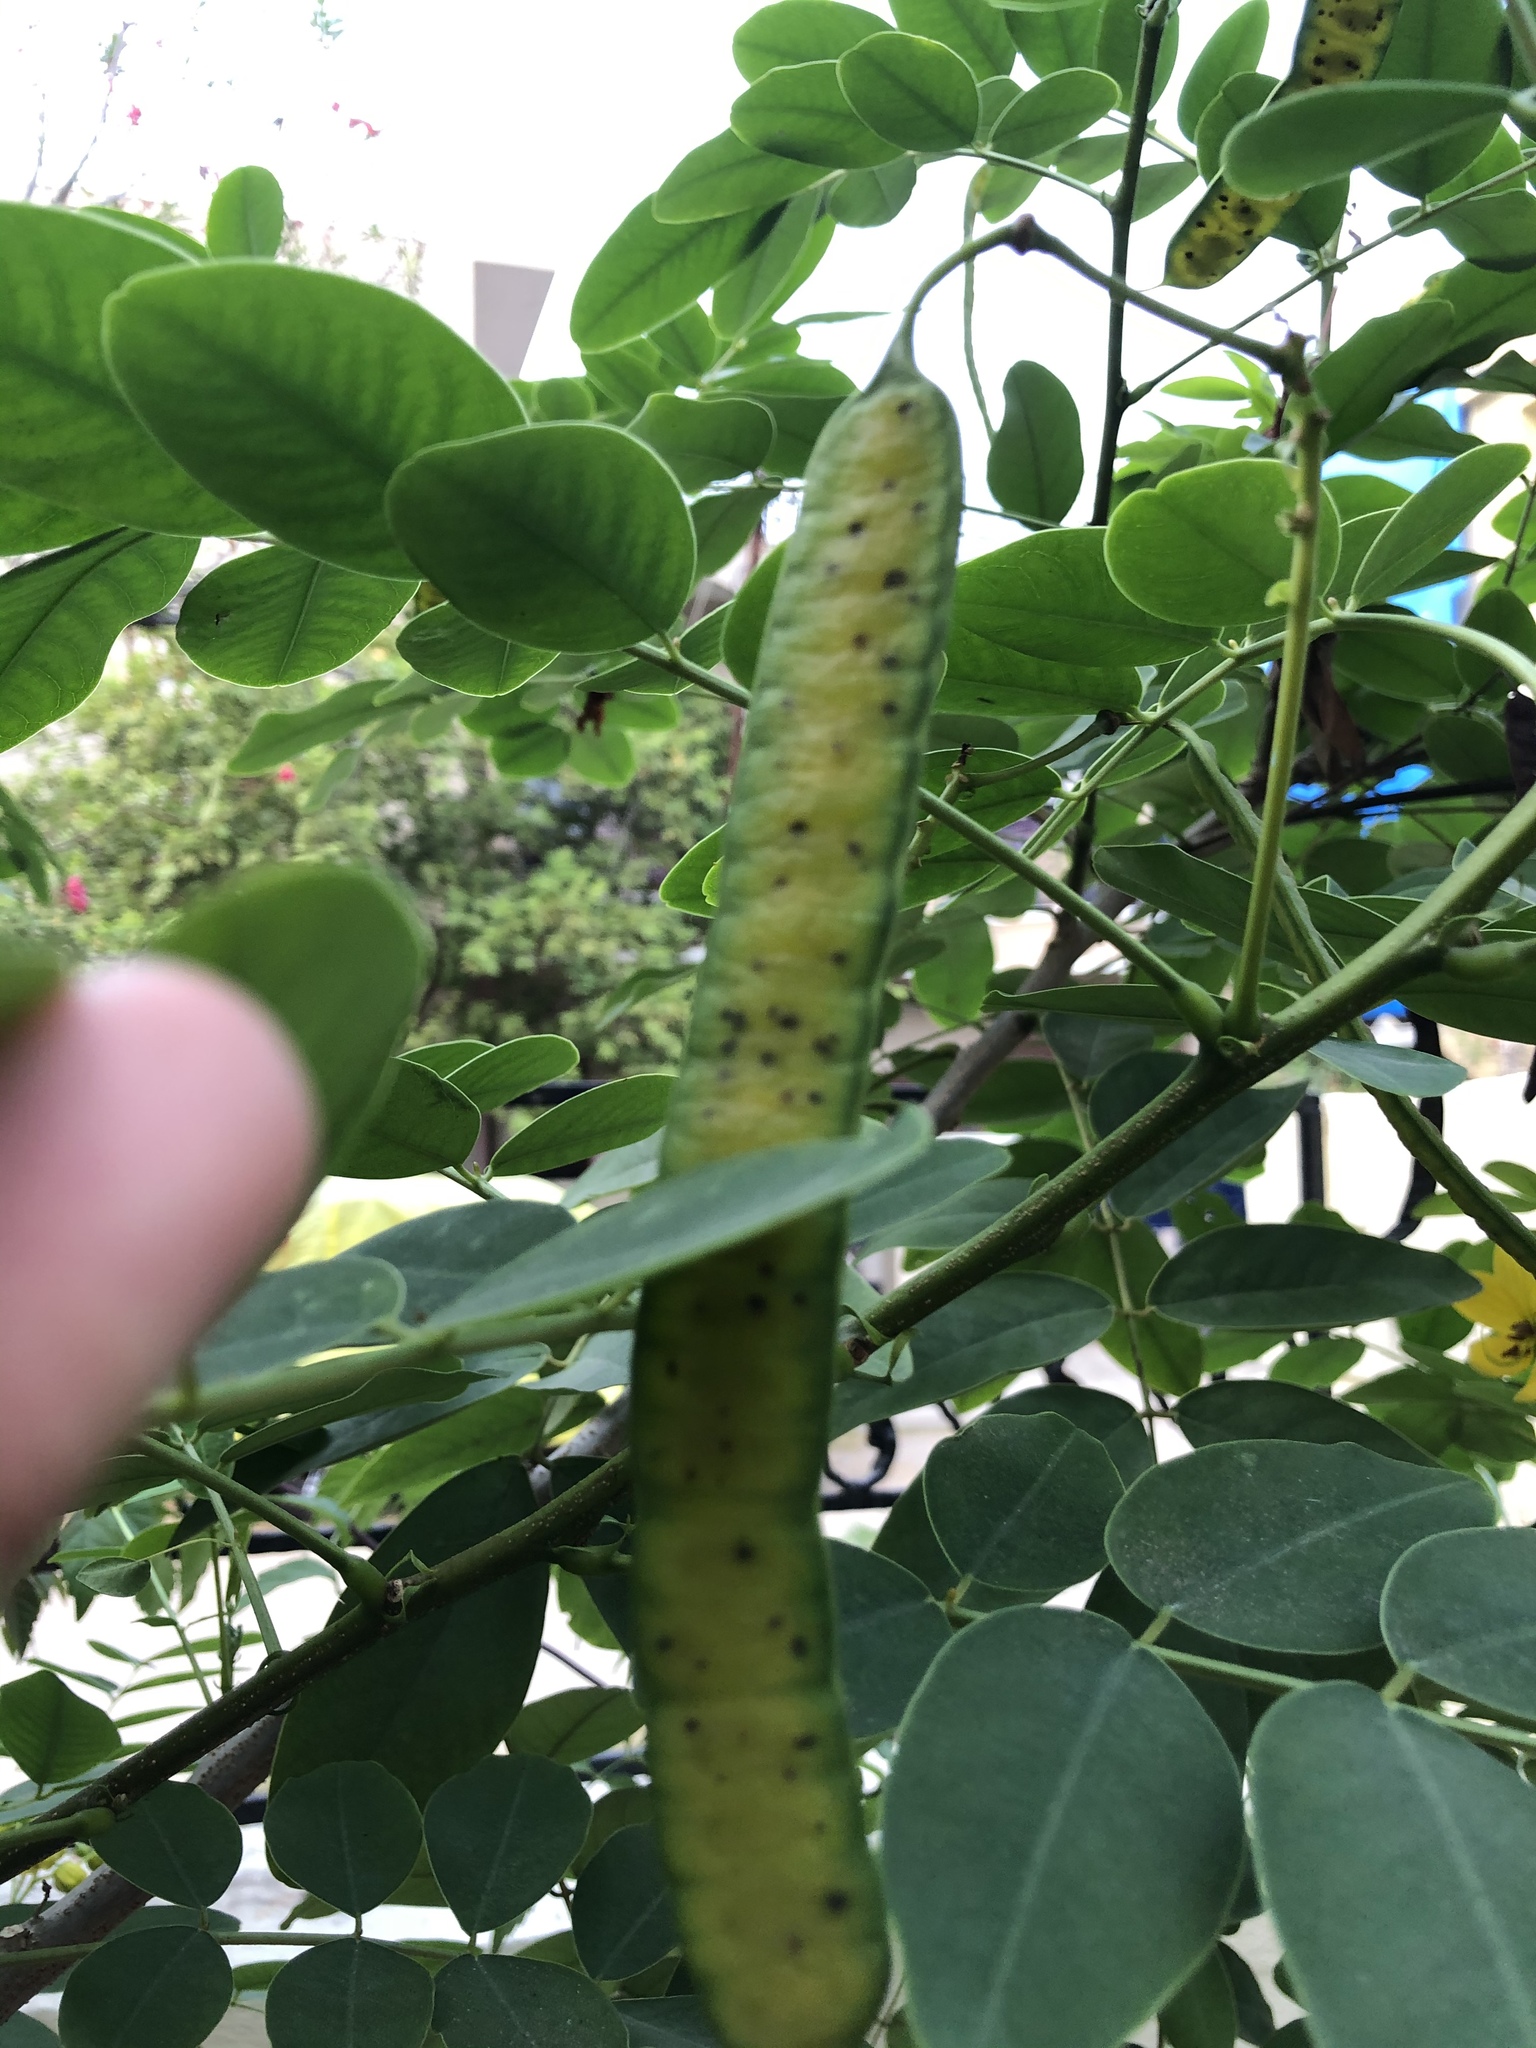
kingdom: Plantae
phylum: Tracheophyta
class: Magnoliopsida
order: Fabales
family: Fabaceae
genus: Senna
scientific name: Senna sulfurea
